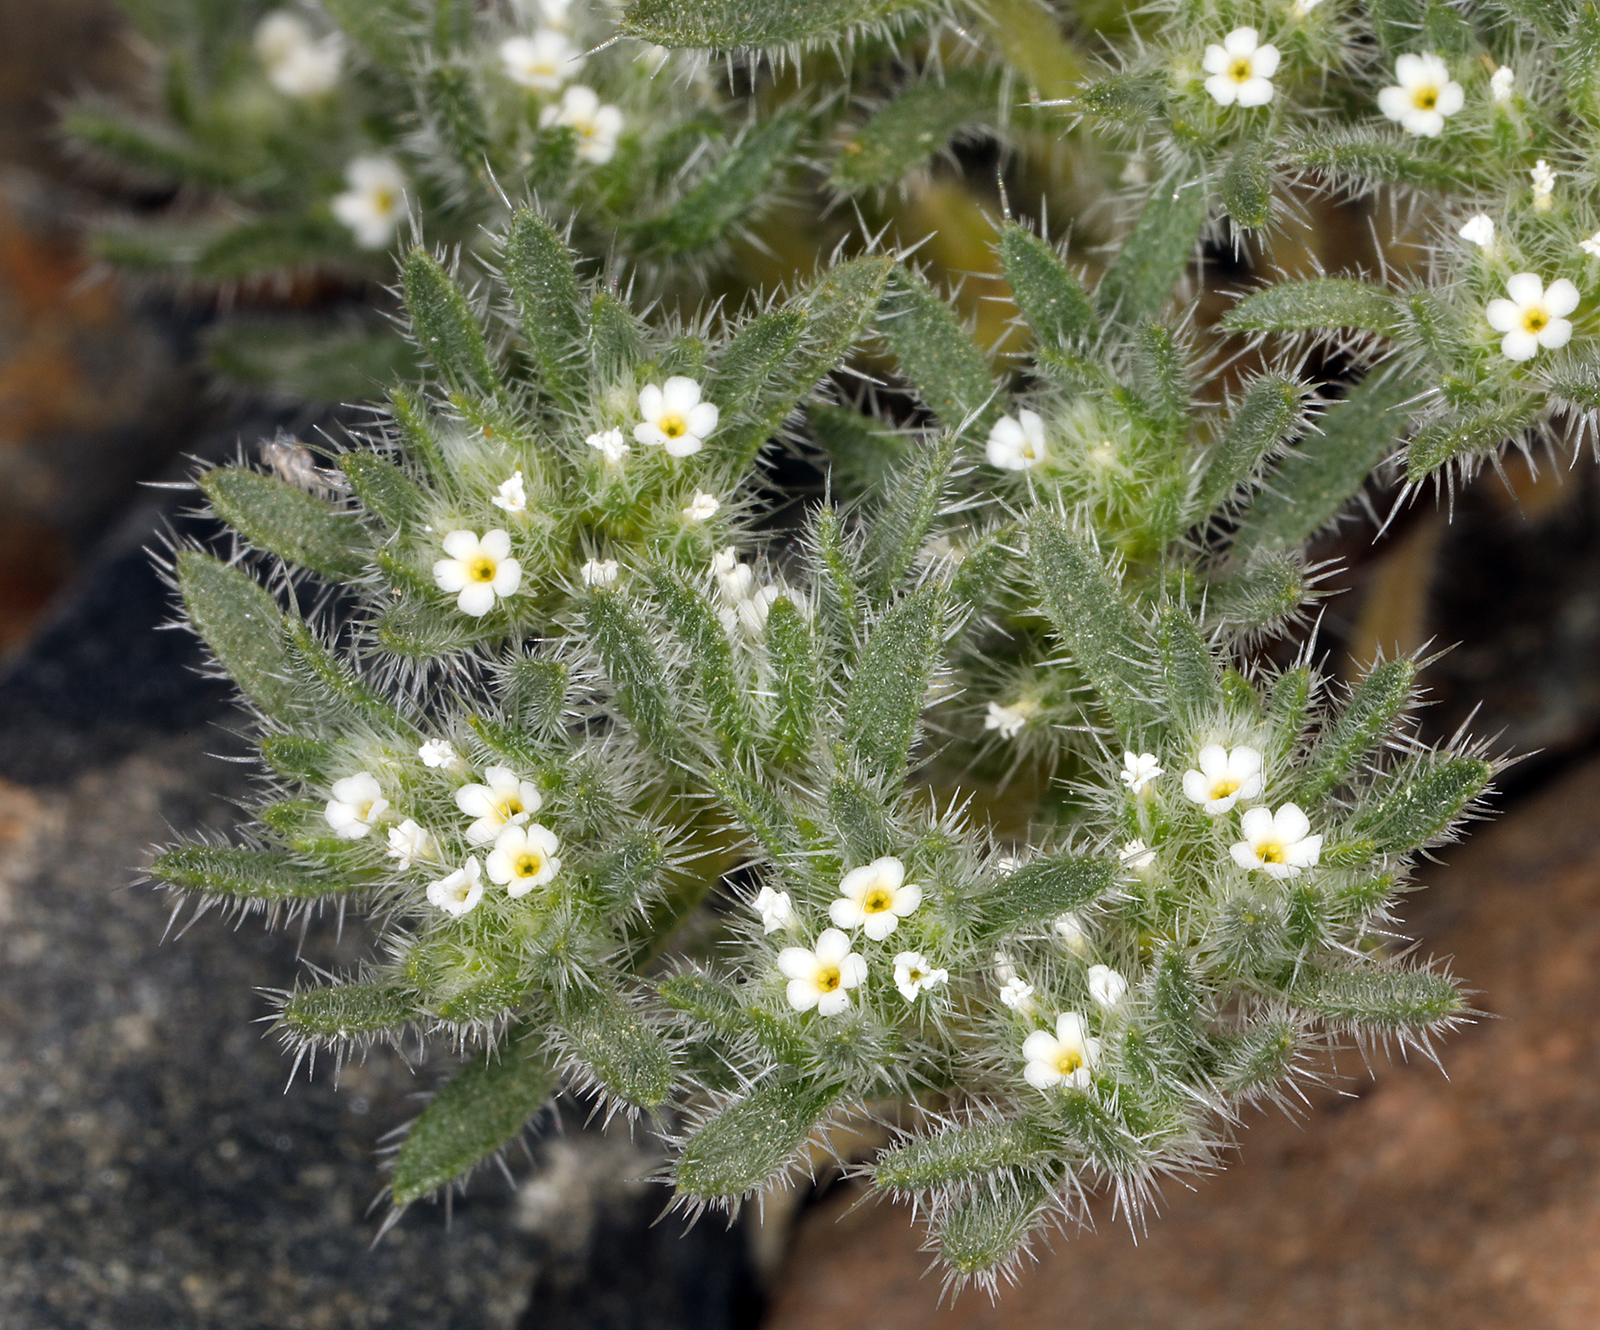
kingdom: Plantae
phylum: Tracheophyta
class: Magnoliopsida
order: Boraginales
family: Boraginaceae
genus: Greeneocharis
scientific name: Greeneocharis circumscissa
